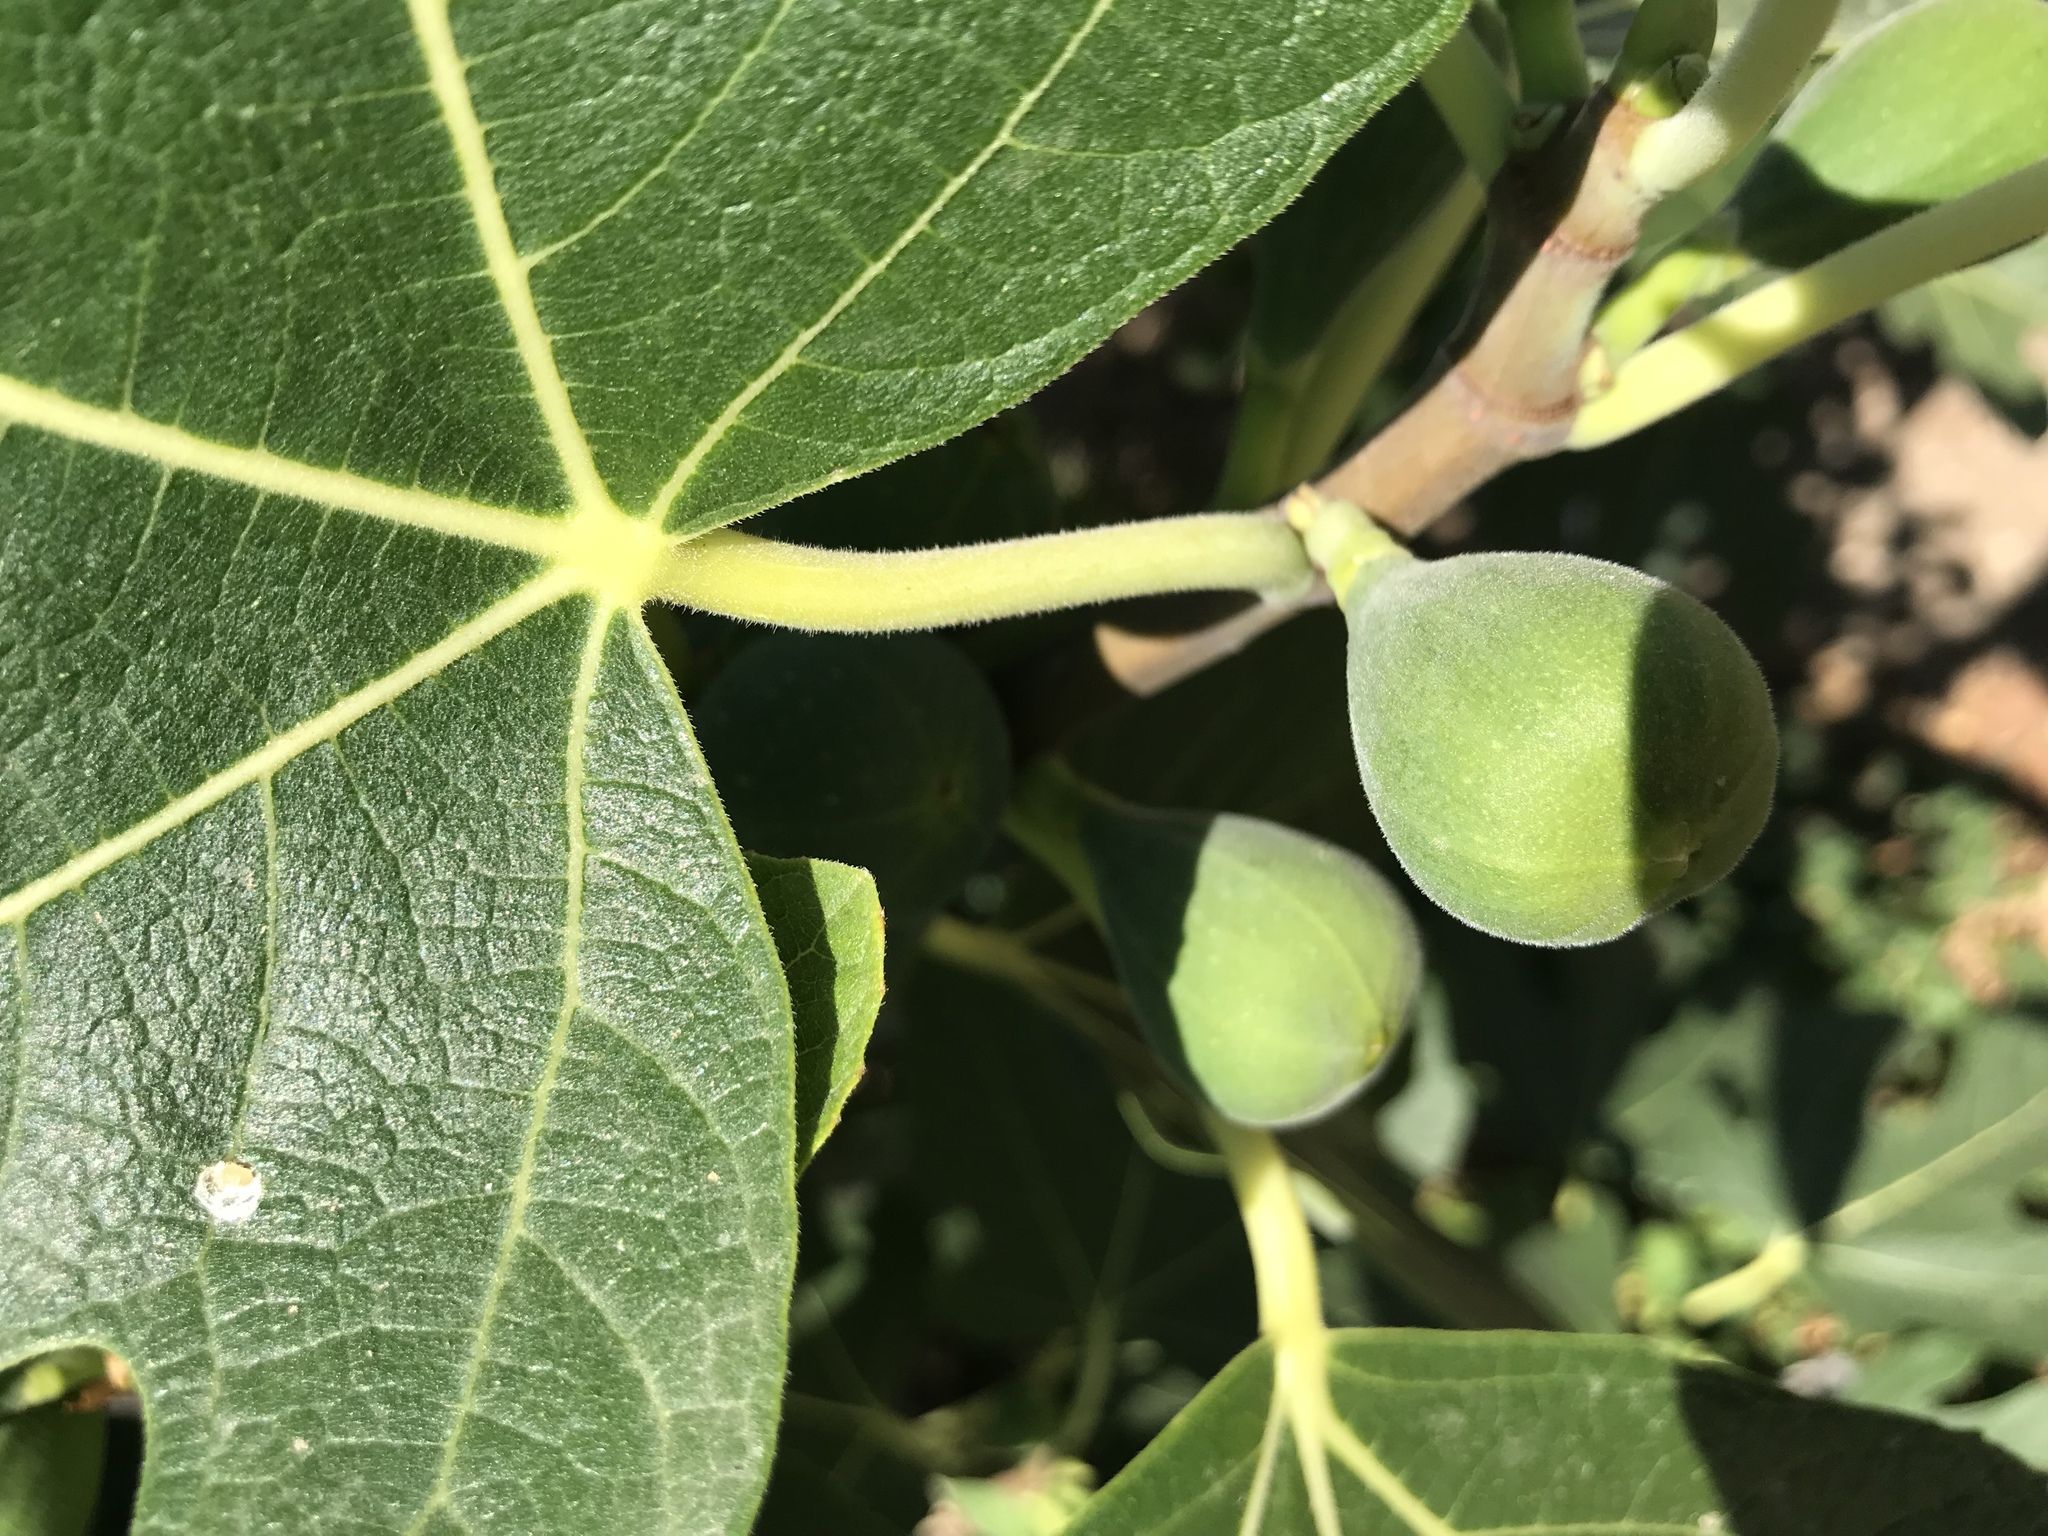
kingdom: Plantae
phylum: Tracheophyta
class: Magnoliopsida
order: Rosales
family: Moraceae
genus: Ficus
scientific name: Ficus carica
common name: Fig
